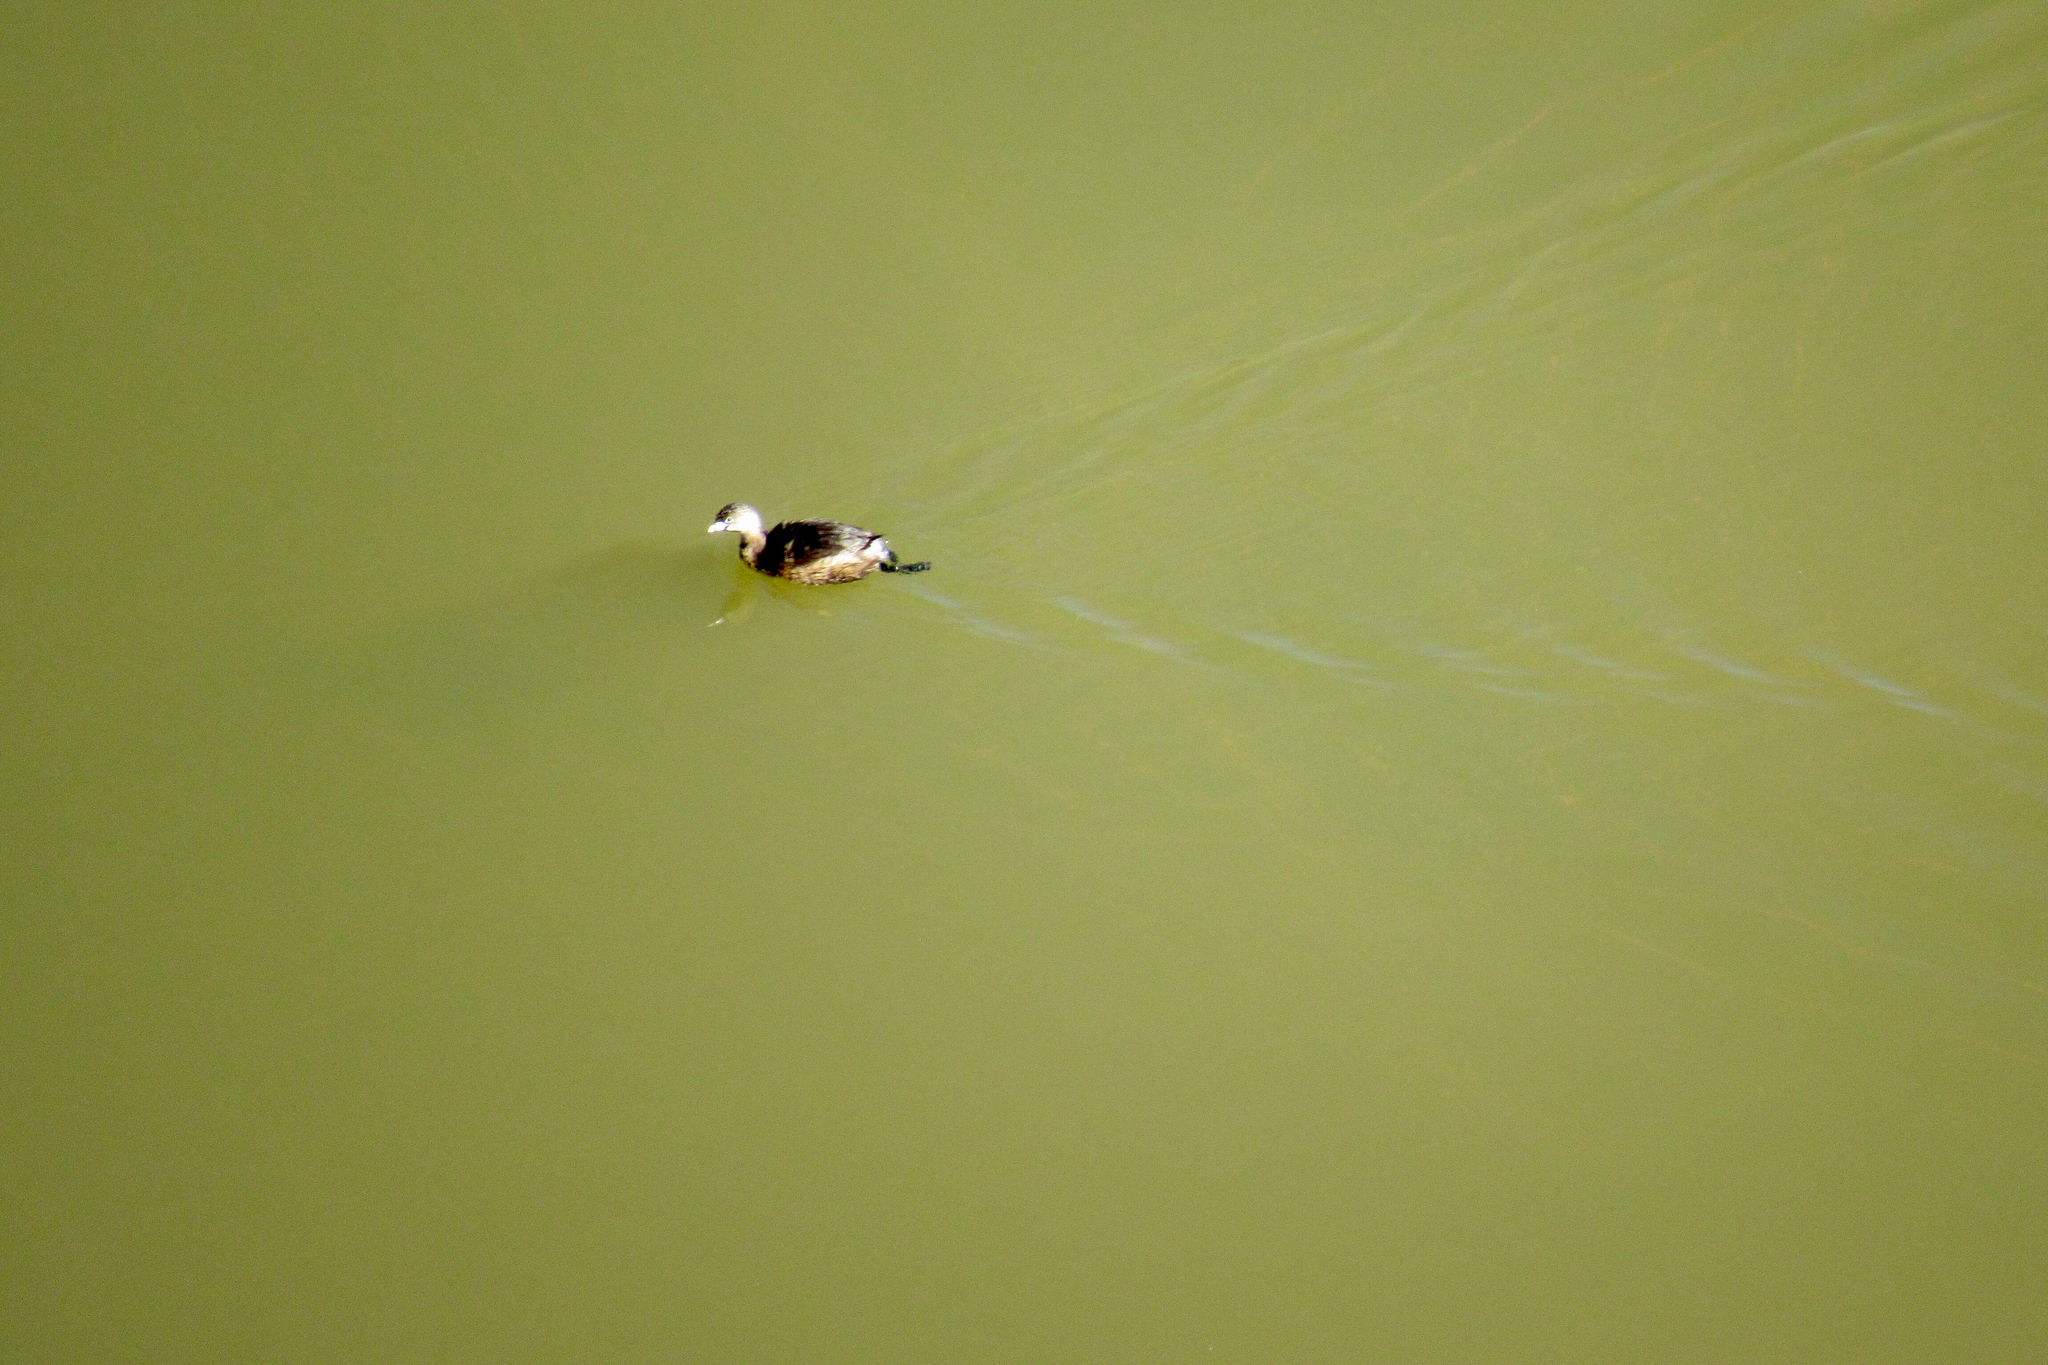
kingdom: Animalia
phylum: Chordata
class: Aves
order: Podicipediformes
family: Podicipedidae
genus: Podilymbus
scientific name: Podilymbus podiceps
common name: Pied-billed grebe
